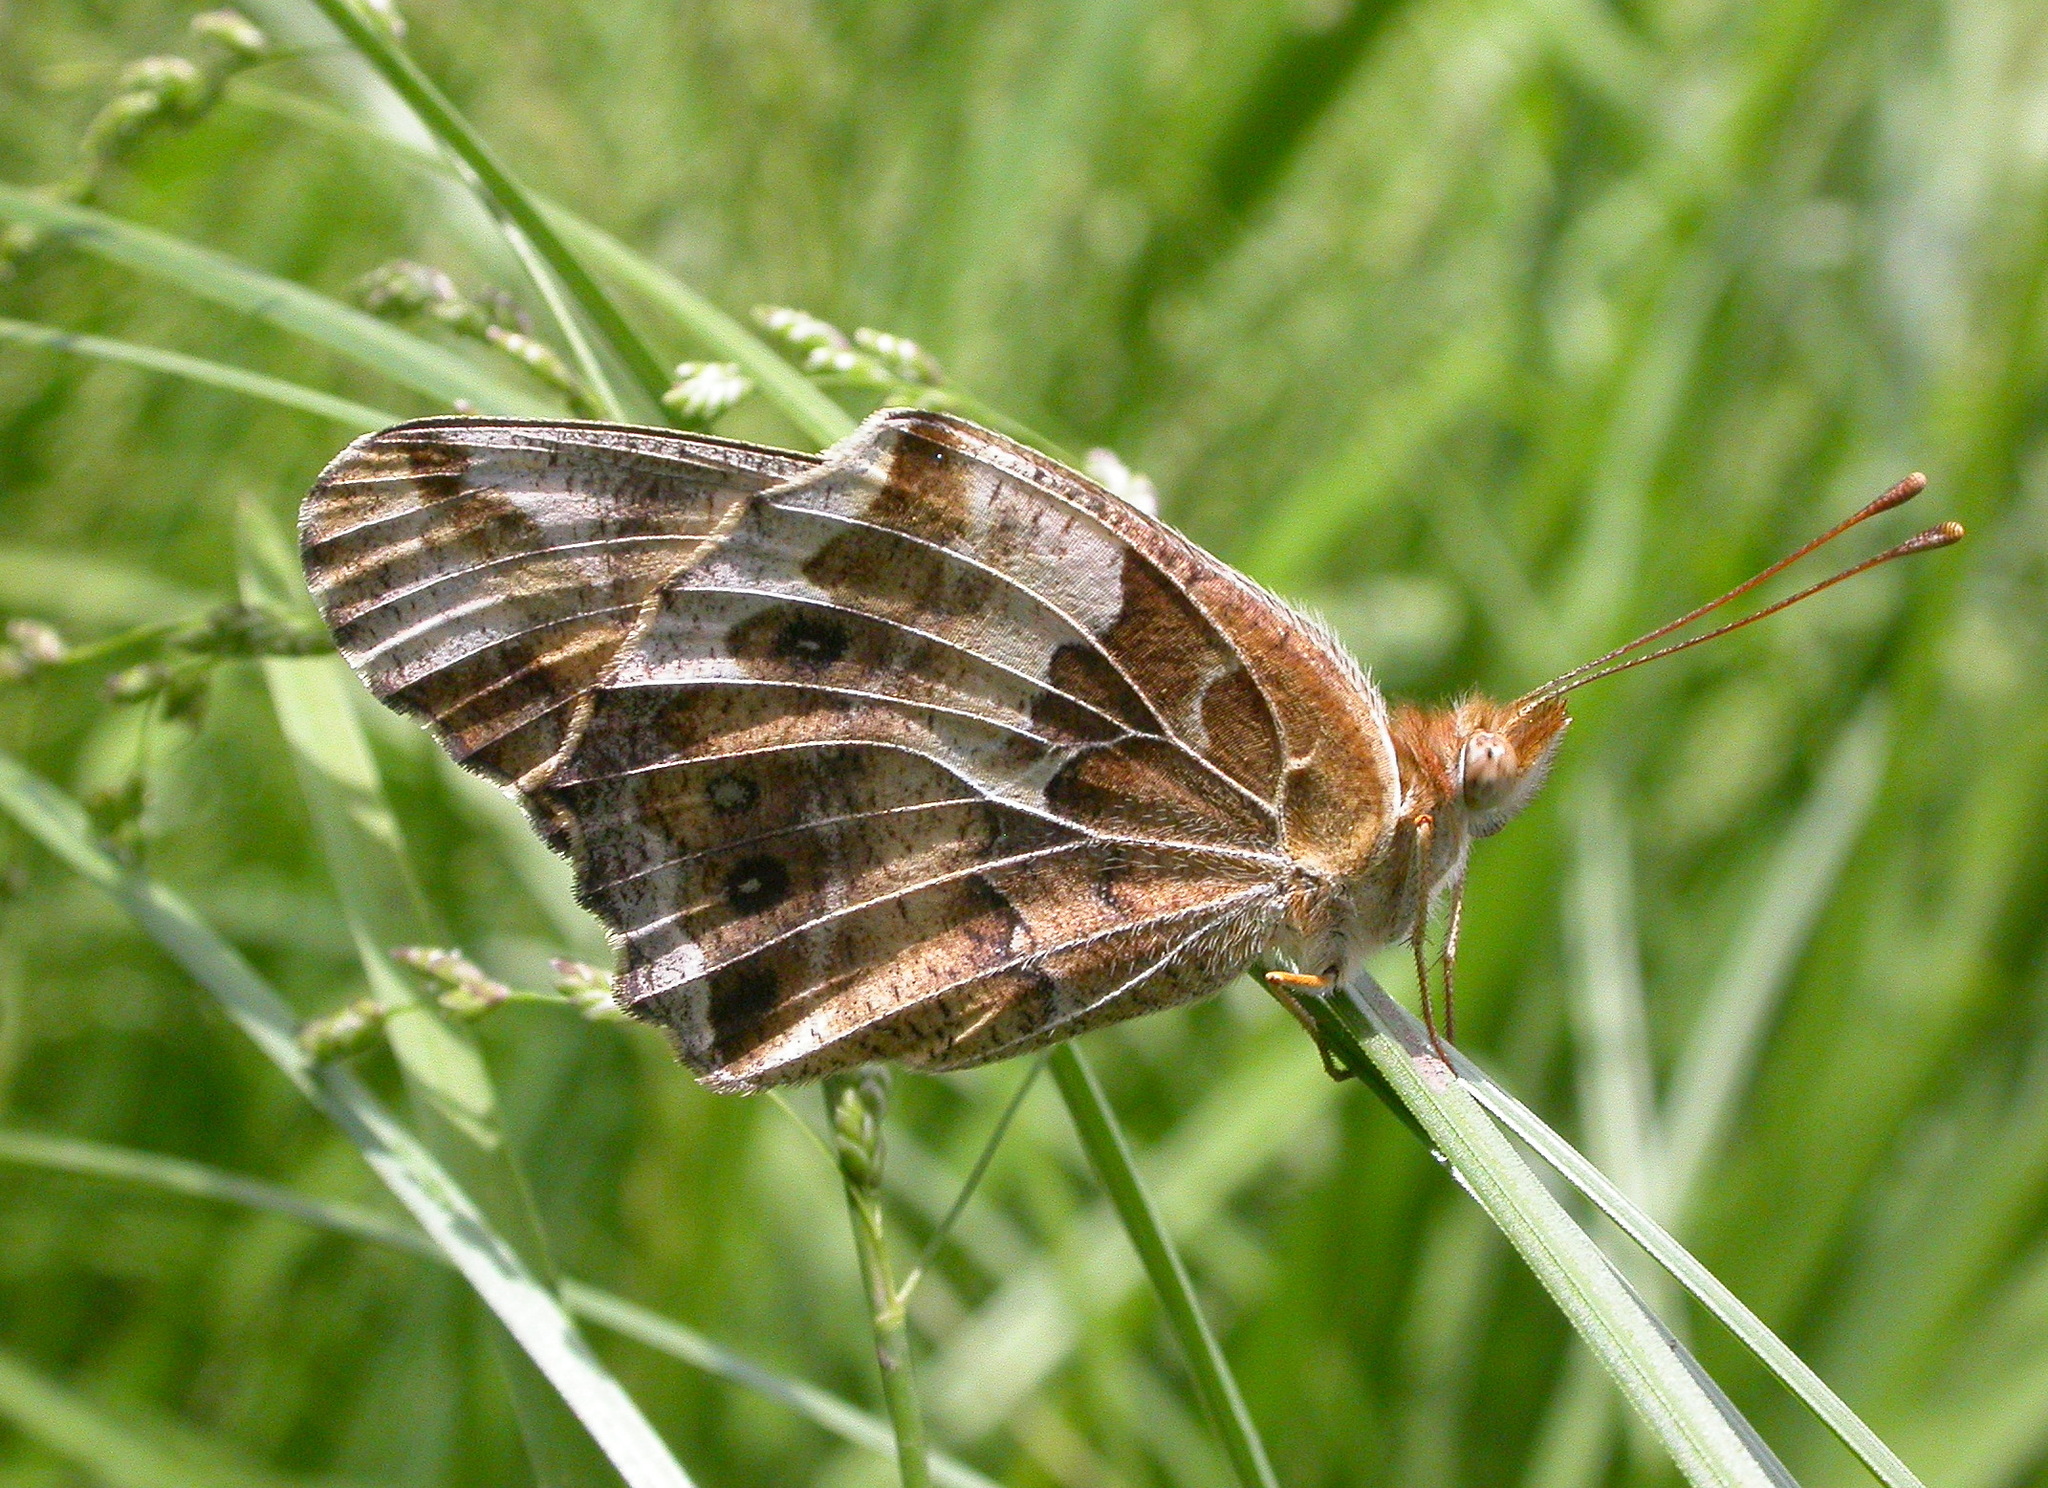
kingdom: Animalia
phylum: Arthropoda
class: Insecta
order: Lepidoptera
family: Nymphalidae
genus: Euptoieta
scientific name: Euptoieta claudia
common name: Variegated fritillary
